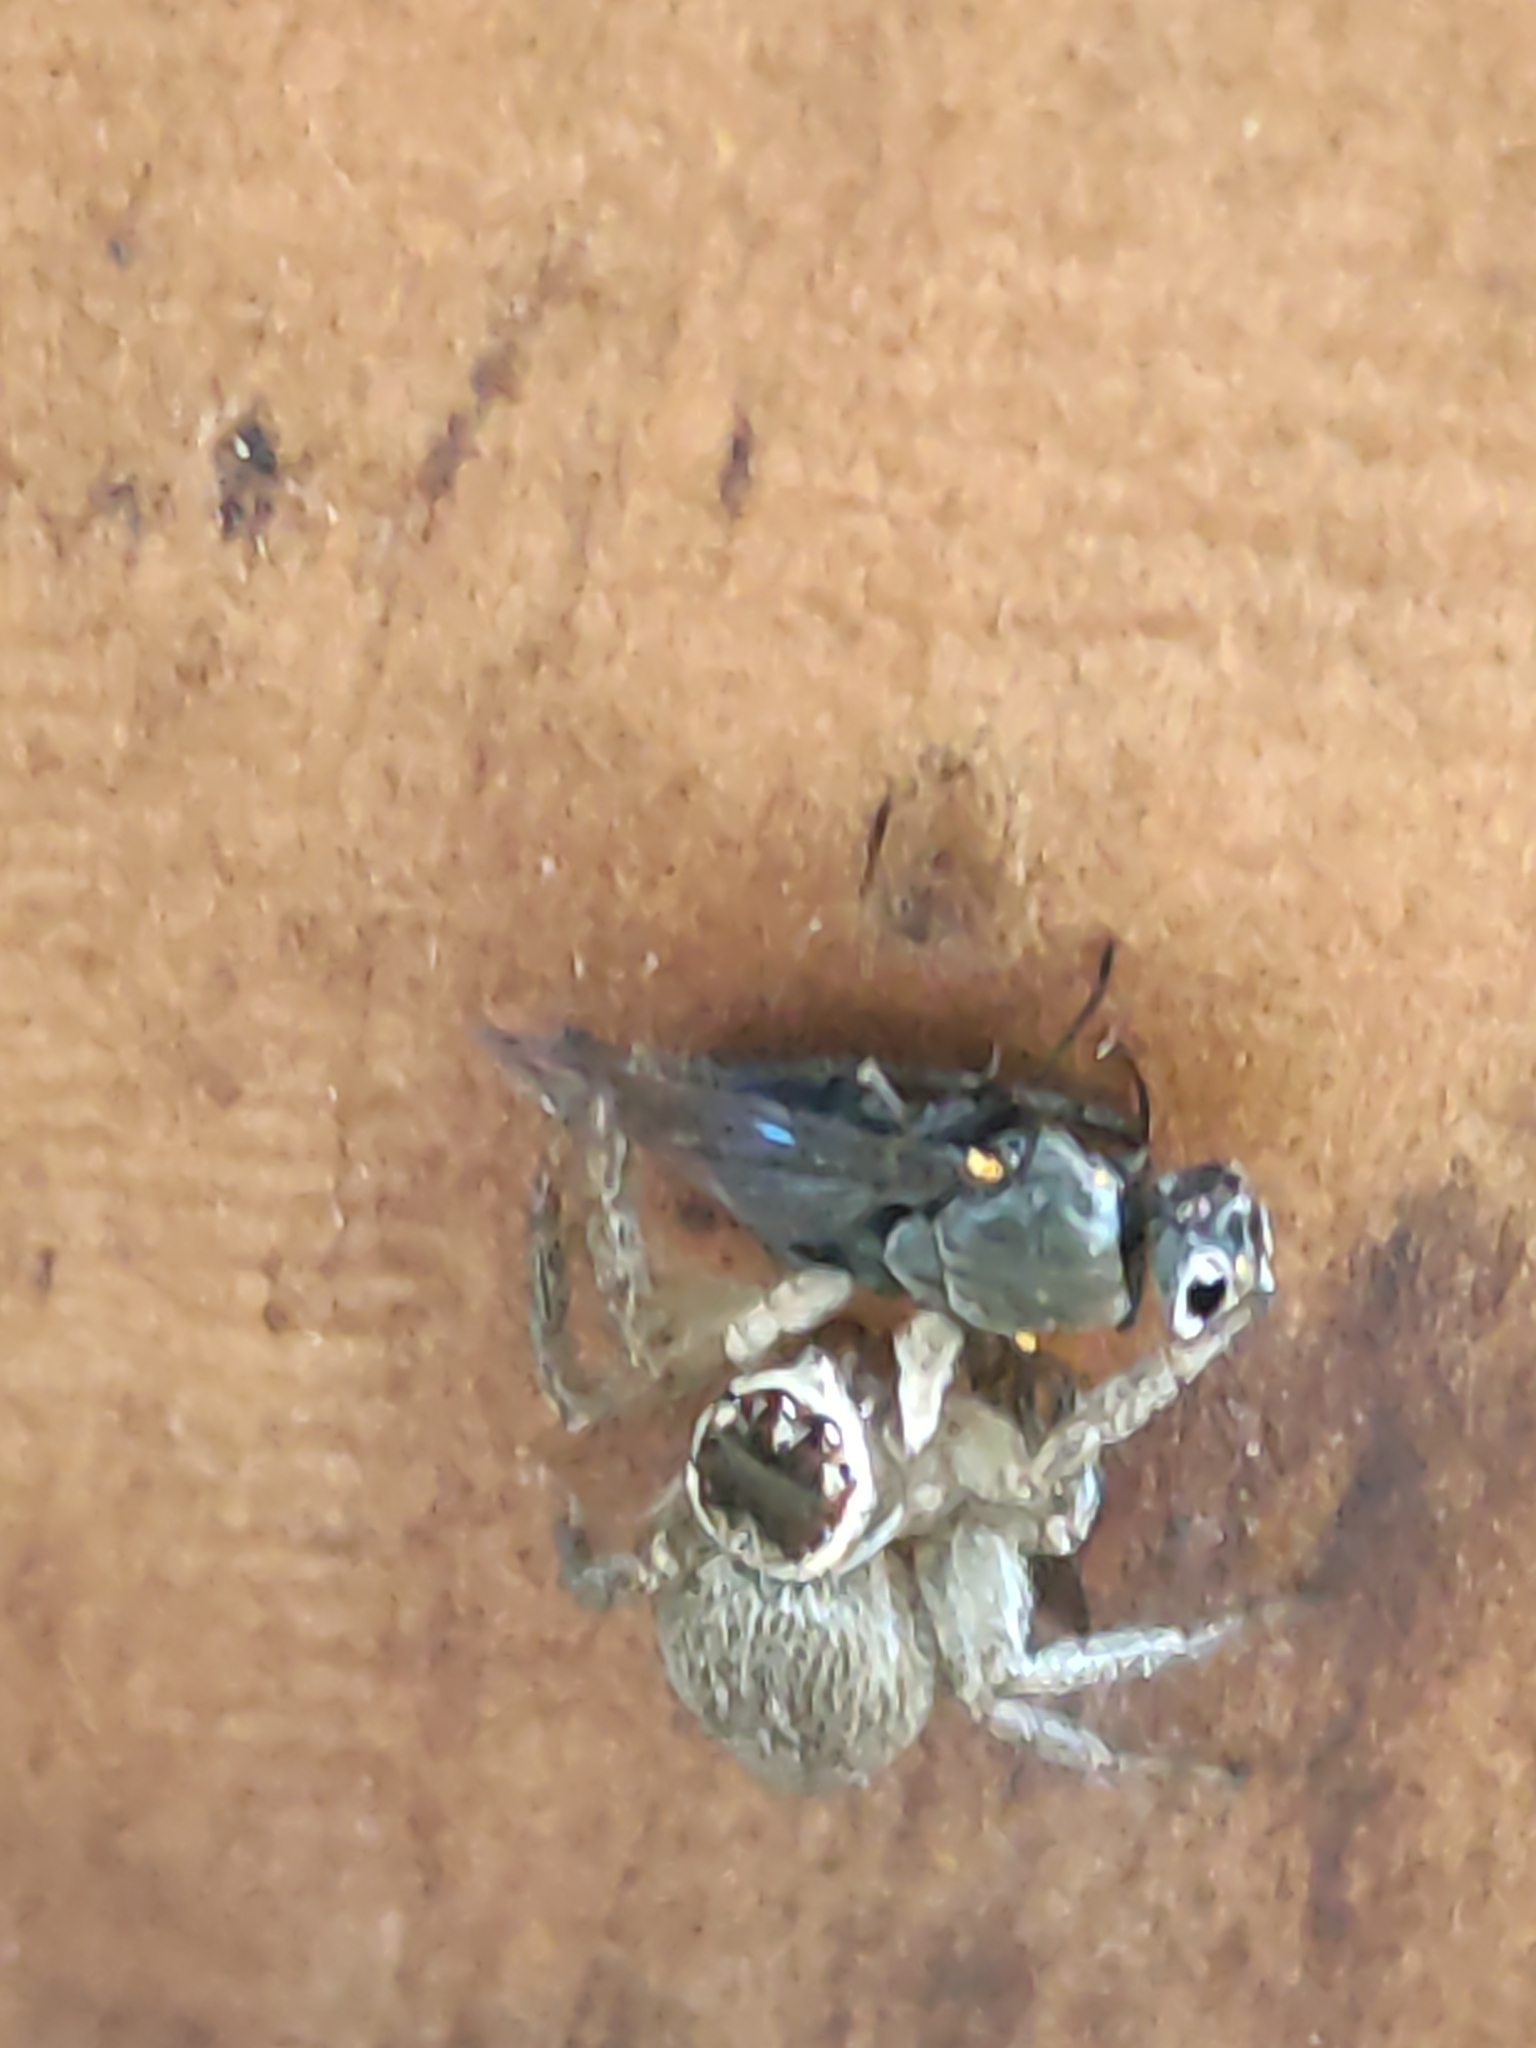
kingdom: Animalia
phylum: Arthropoda
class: Arachnida
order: Araneae
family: Salticidae
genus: Maratus
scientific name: Maratus griseus
